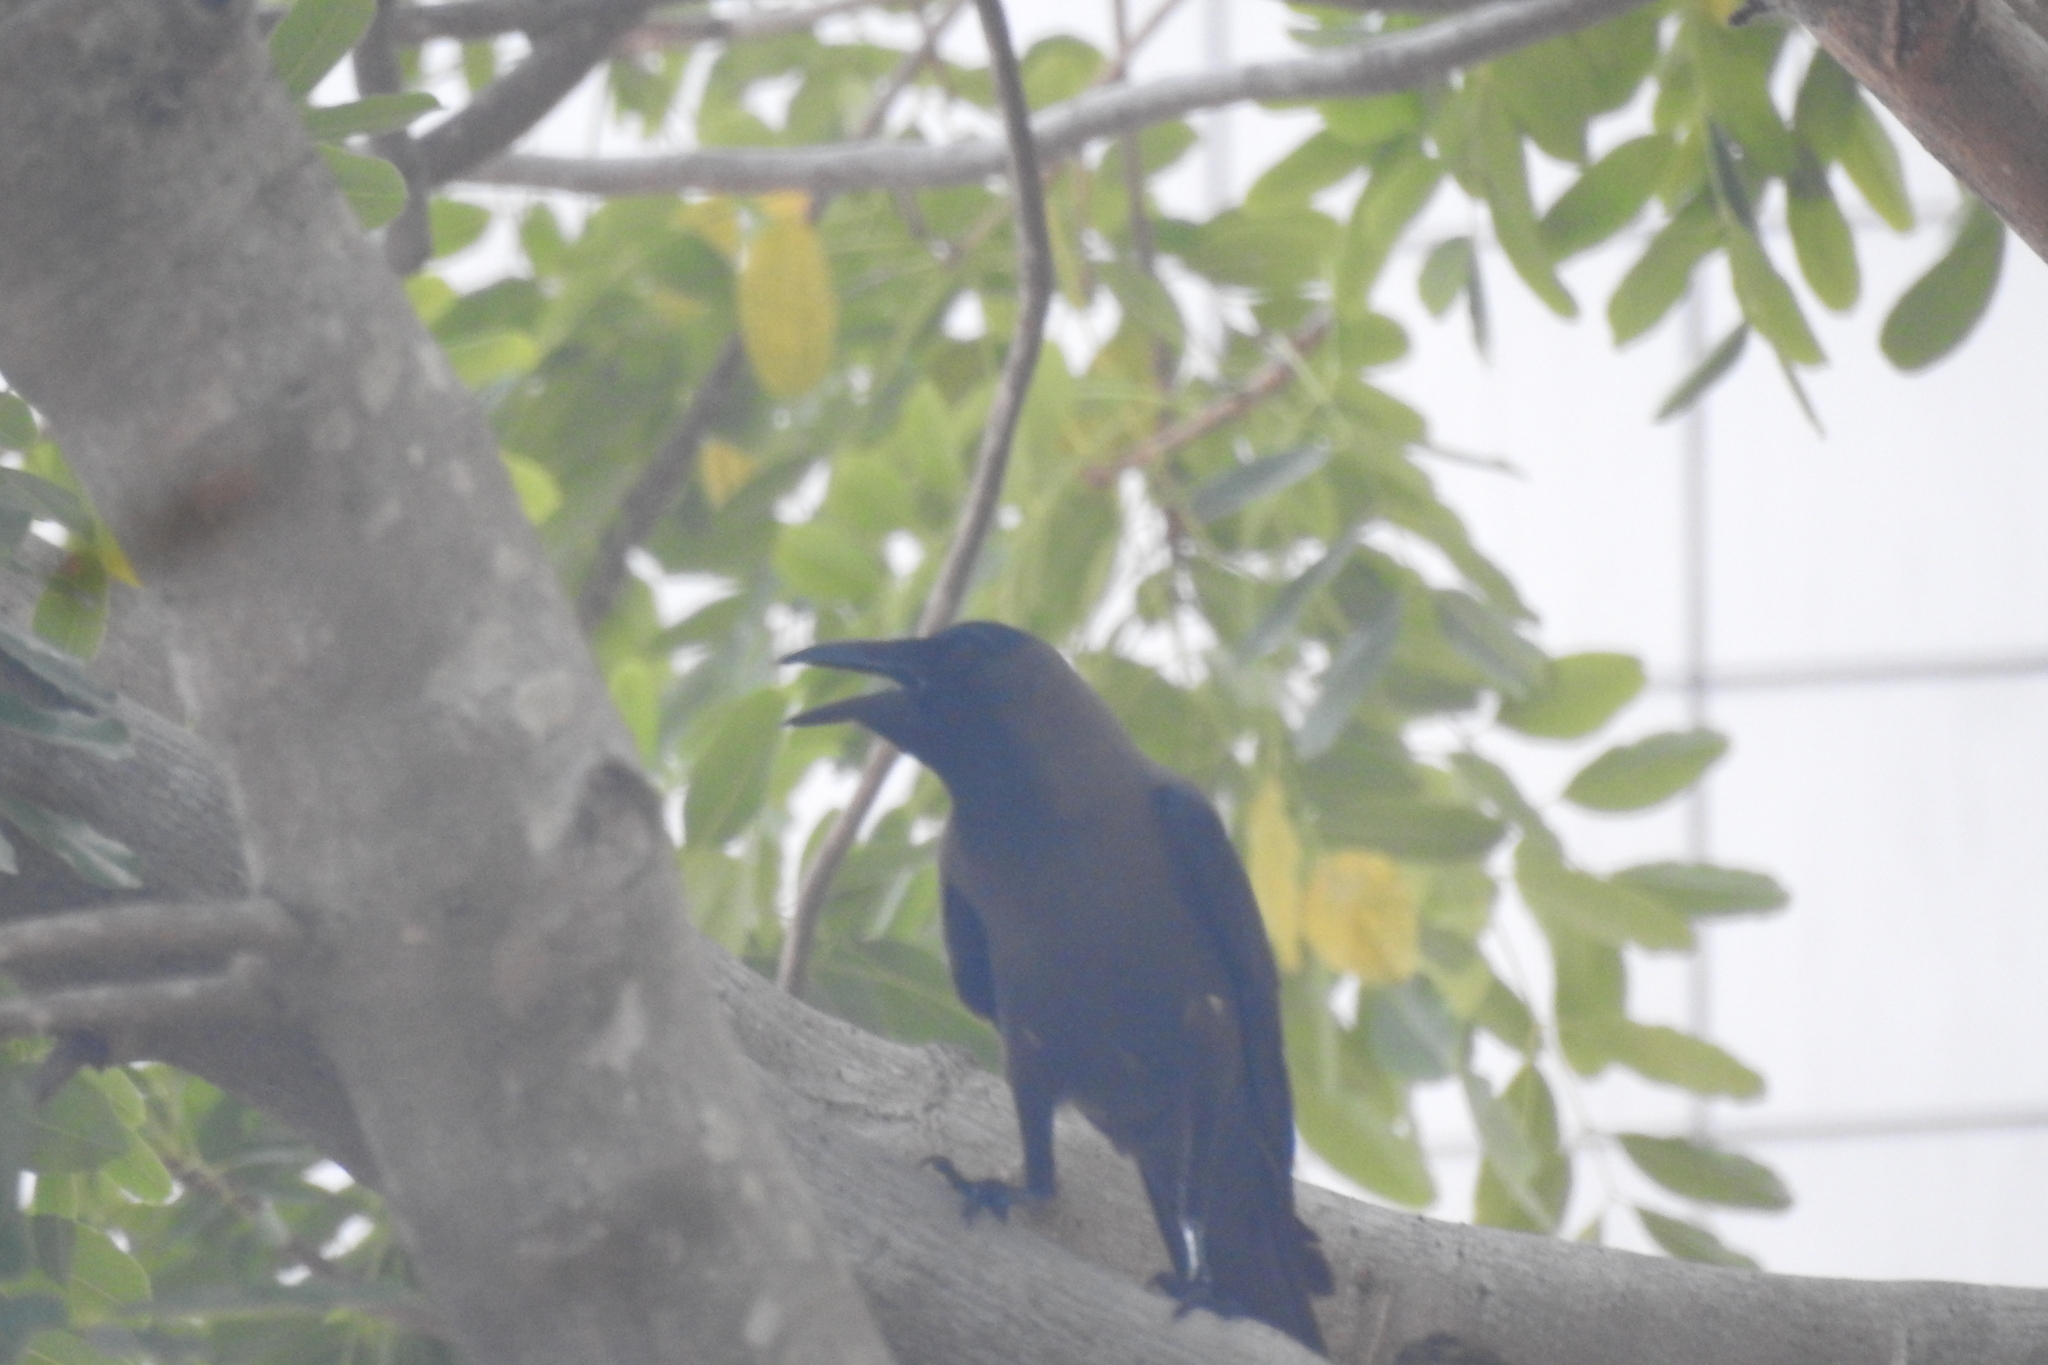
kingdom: Animalia
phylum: Chordata
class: Aves
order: Passeriformes
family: Corvidae
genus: Corvus
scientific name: Corvus splendens
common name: House crow
